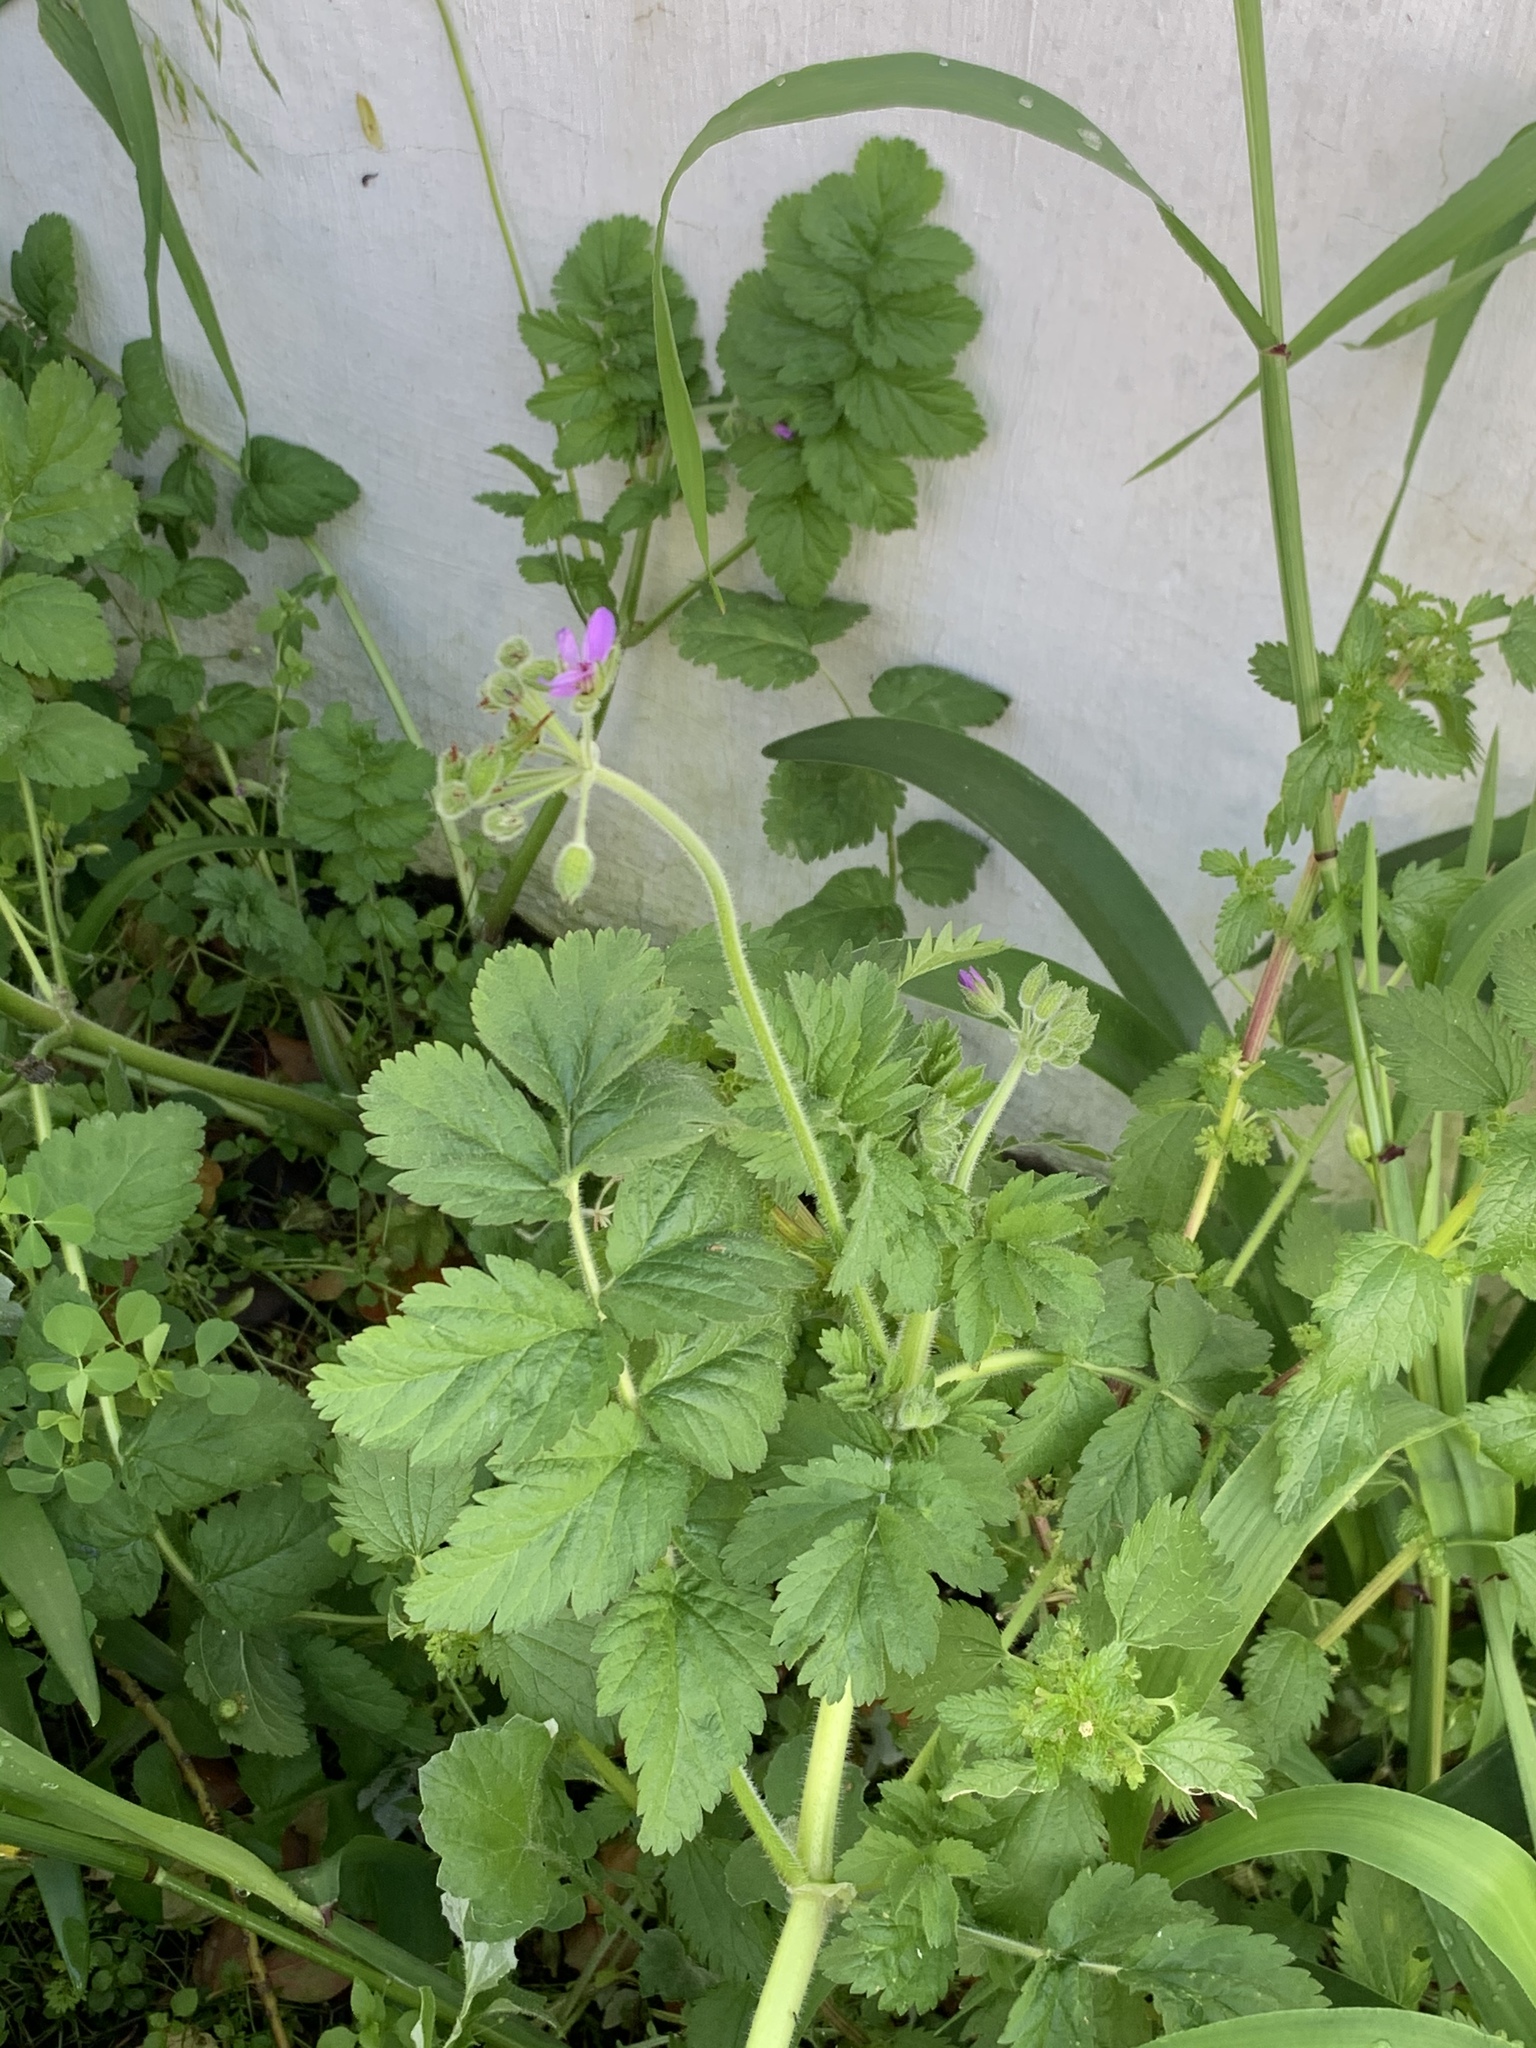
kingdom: Plantae
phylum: Tracheophyta
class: Magnoliopsida
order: Geraniales
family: Geraniaceae
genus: Erodium
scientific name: Erodium moschatum
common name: Musk stork's-bill
